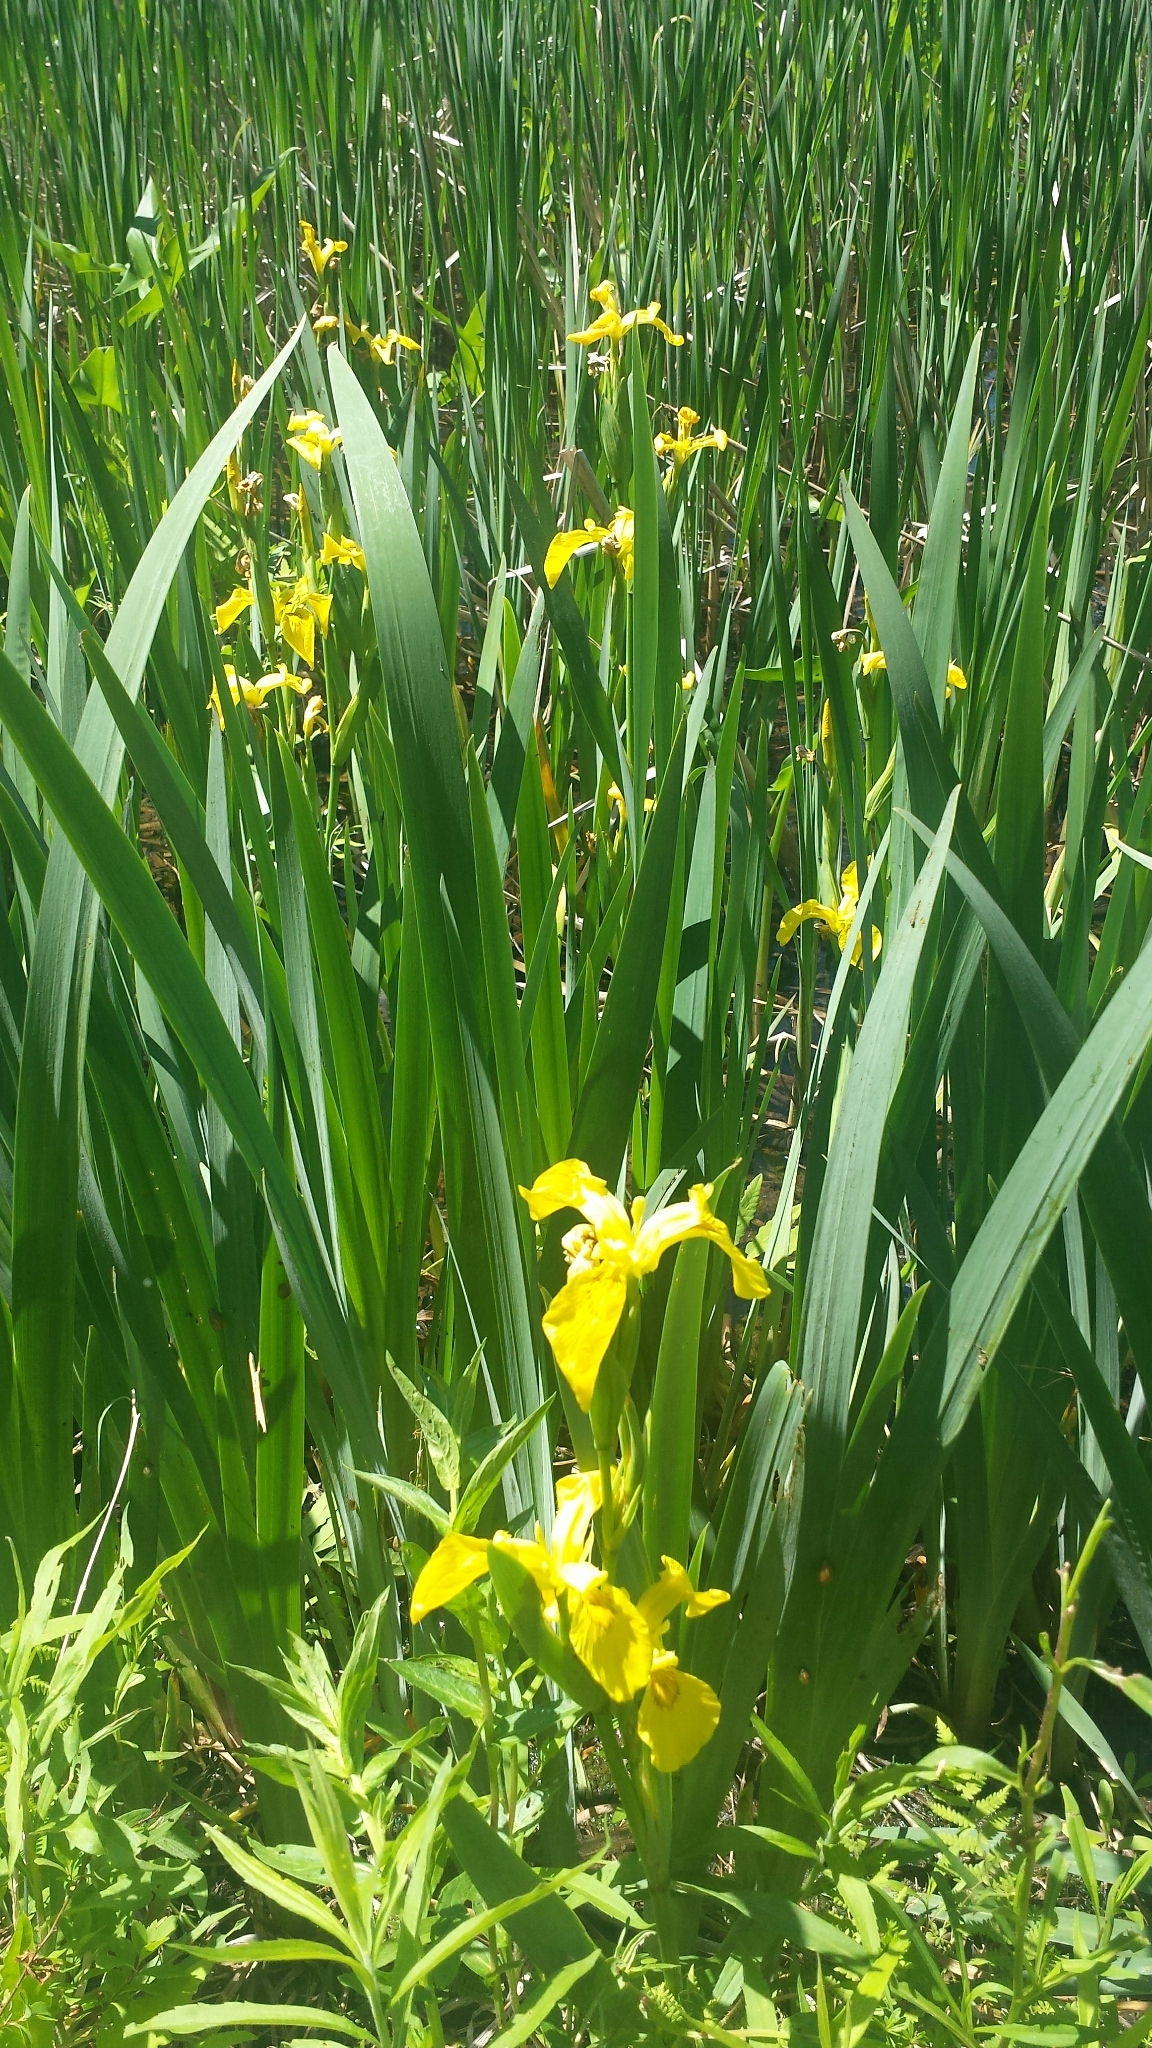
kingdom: Plantae
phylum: Tracheophyta
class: Liliopsida
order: Asparagales
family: Iridaceae
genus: Iris
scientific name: Iris pseudacorus
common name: Yellow flag
